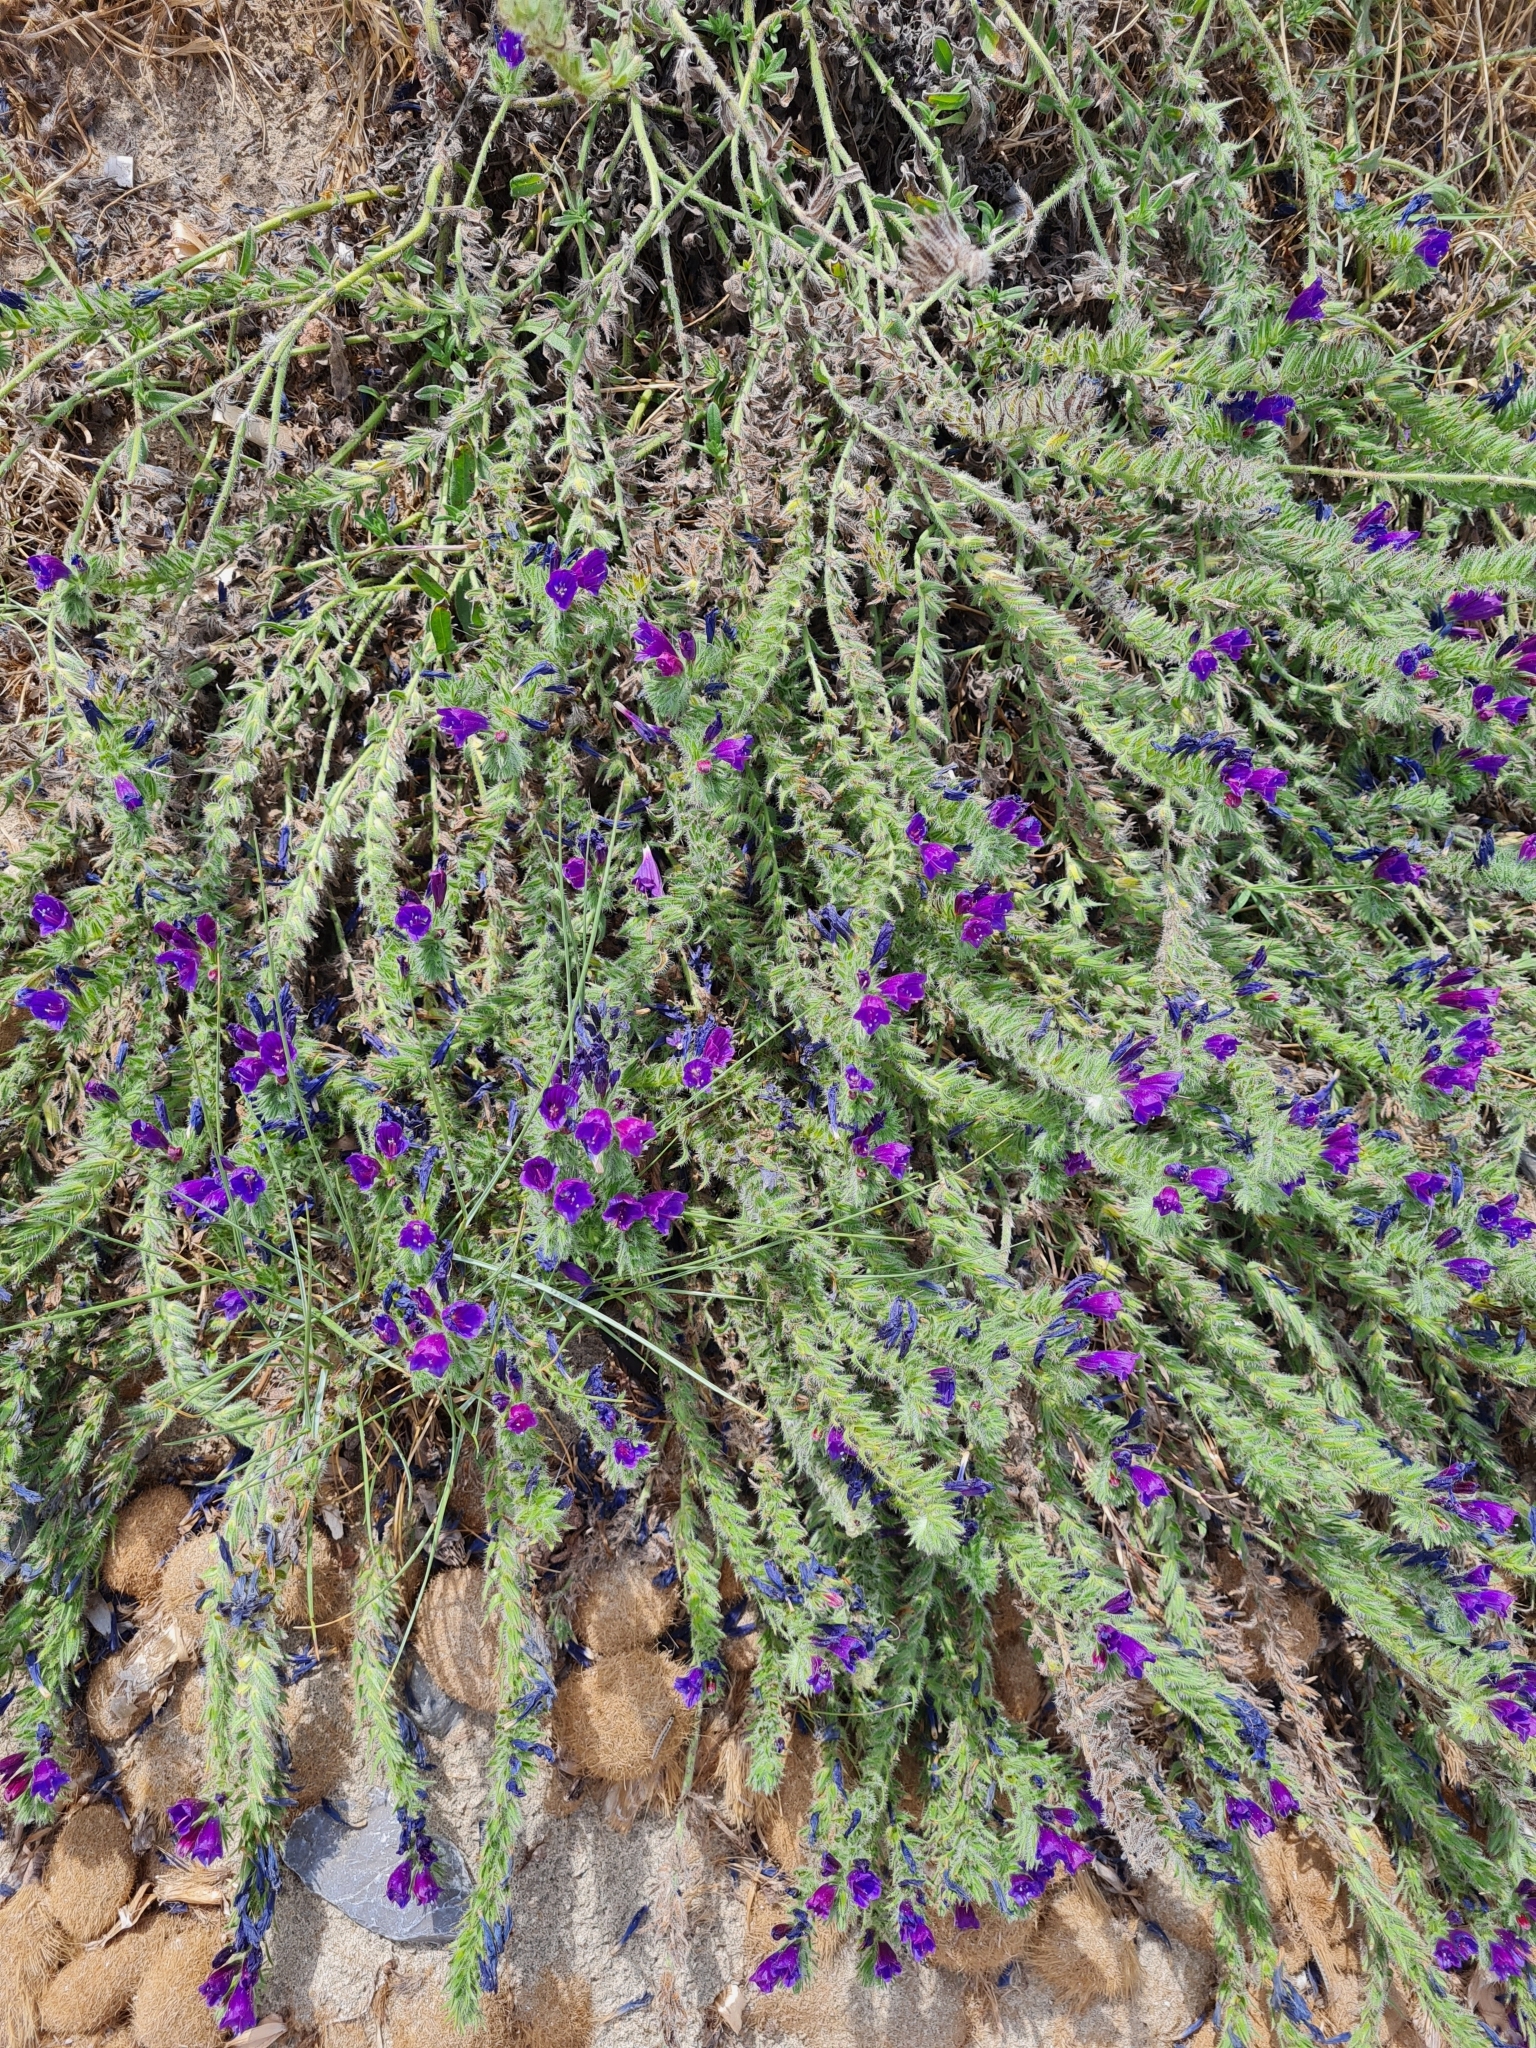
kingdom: Plantae
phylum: Tracheophyta
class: Magnoliopsida
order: Boraginales
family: Boraginaceae
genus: Echium
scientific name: Echium sabulicola
